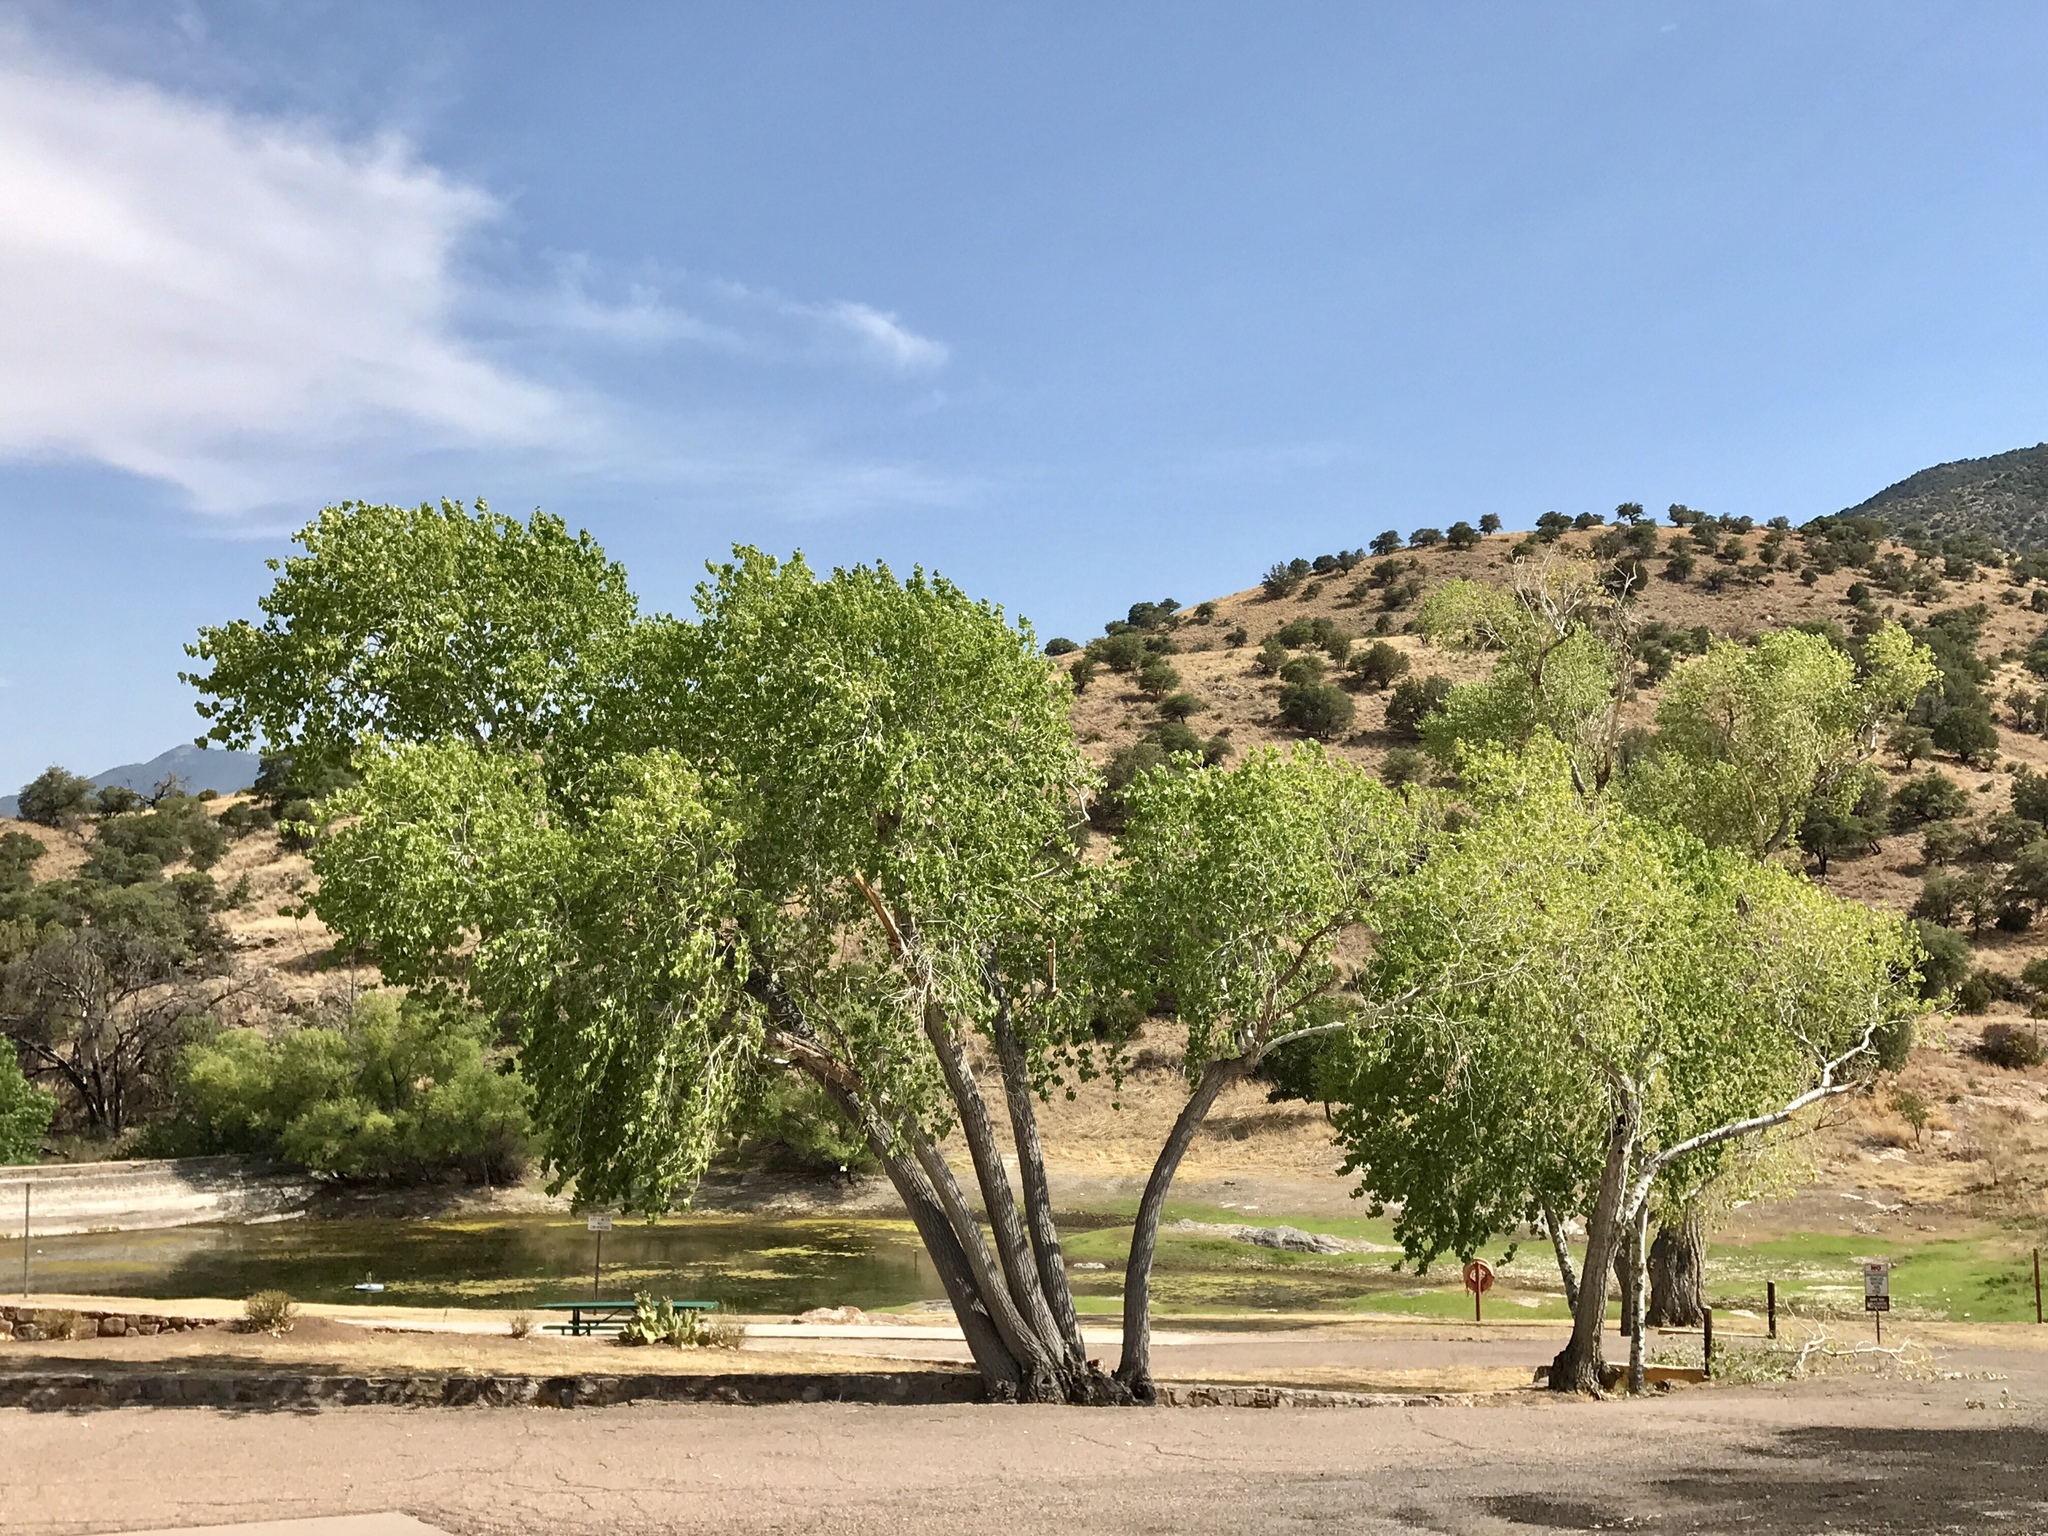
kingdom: Plantae
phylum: Tracheophyta
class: Magnoliopsida
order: Malpighiales
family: Salicaceae
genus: Populus
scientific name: Populus fremontii
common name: Fremont's cottonwood
